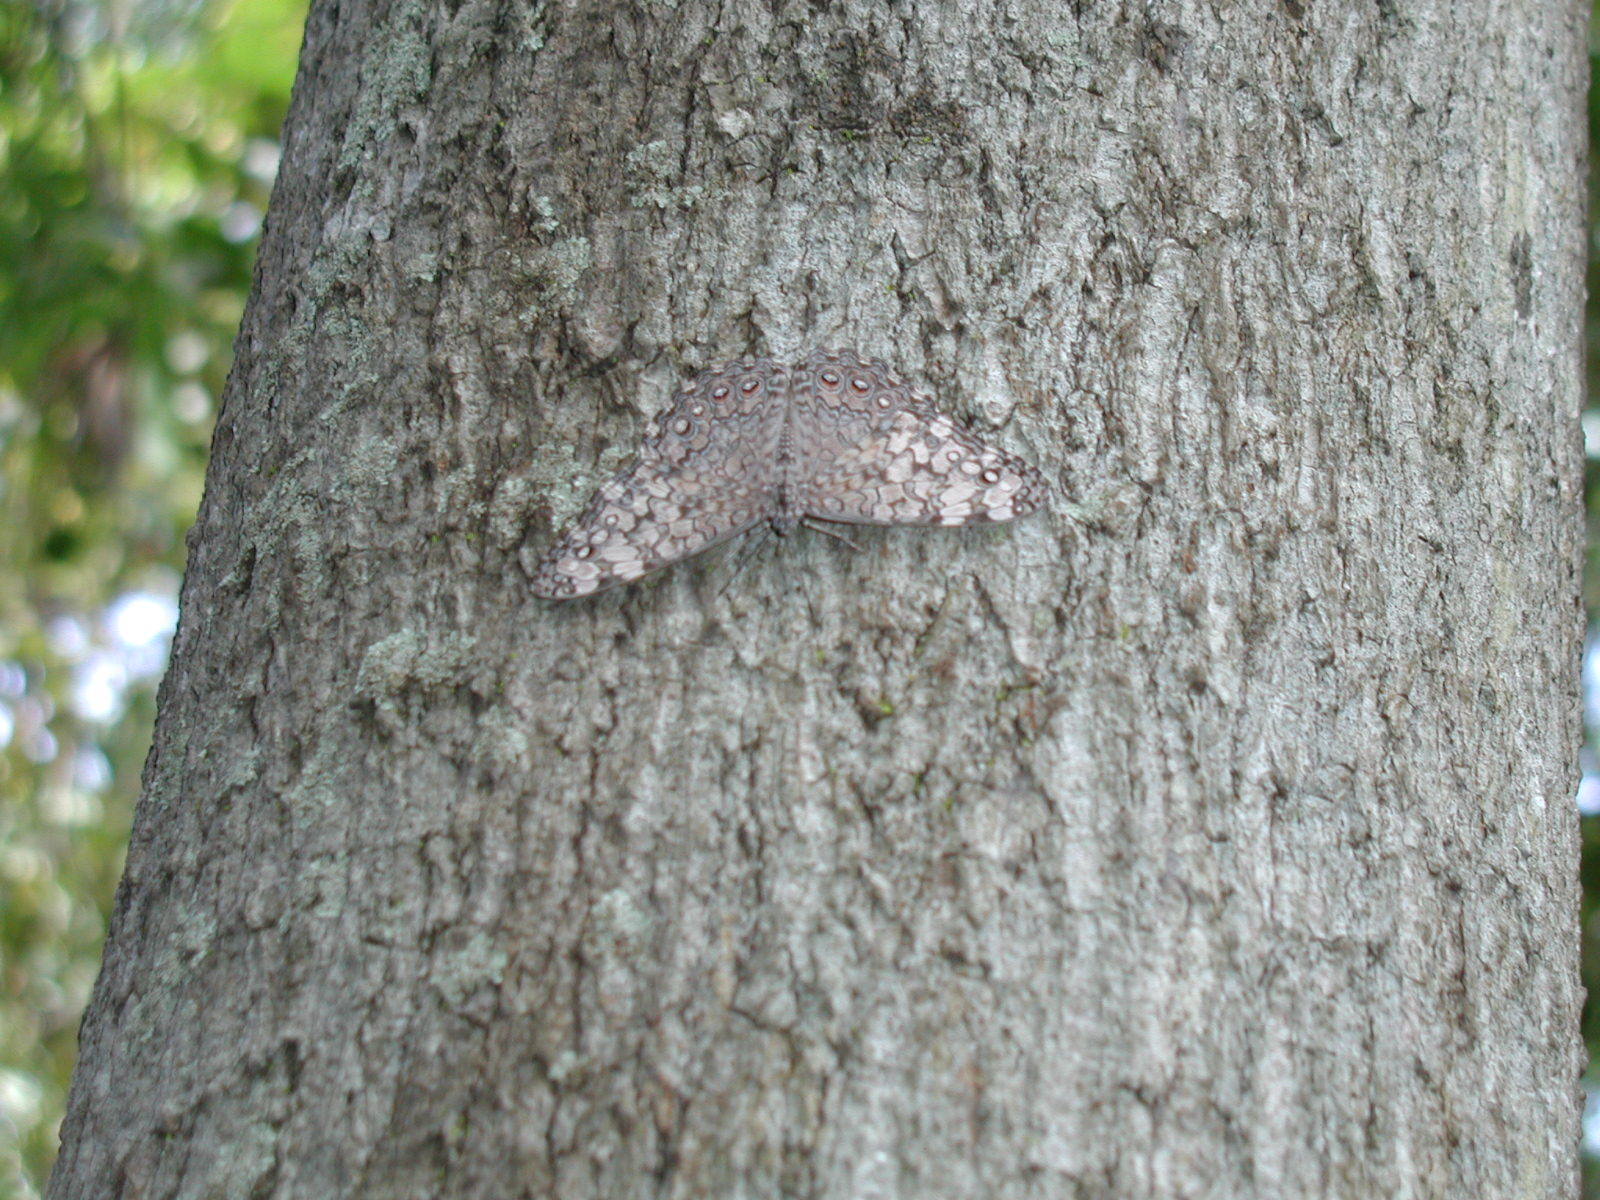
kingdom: Animalia
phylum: Arthropoda
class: Insecta
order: Lepidoptera
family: Nymphalidae
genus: Hamadryas
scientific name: Hamadryas februa
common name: Gray cracker
